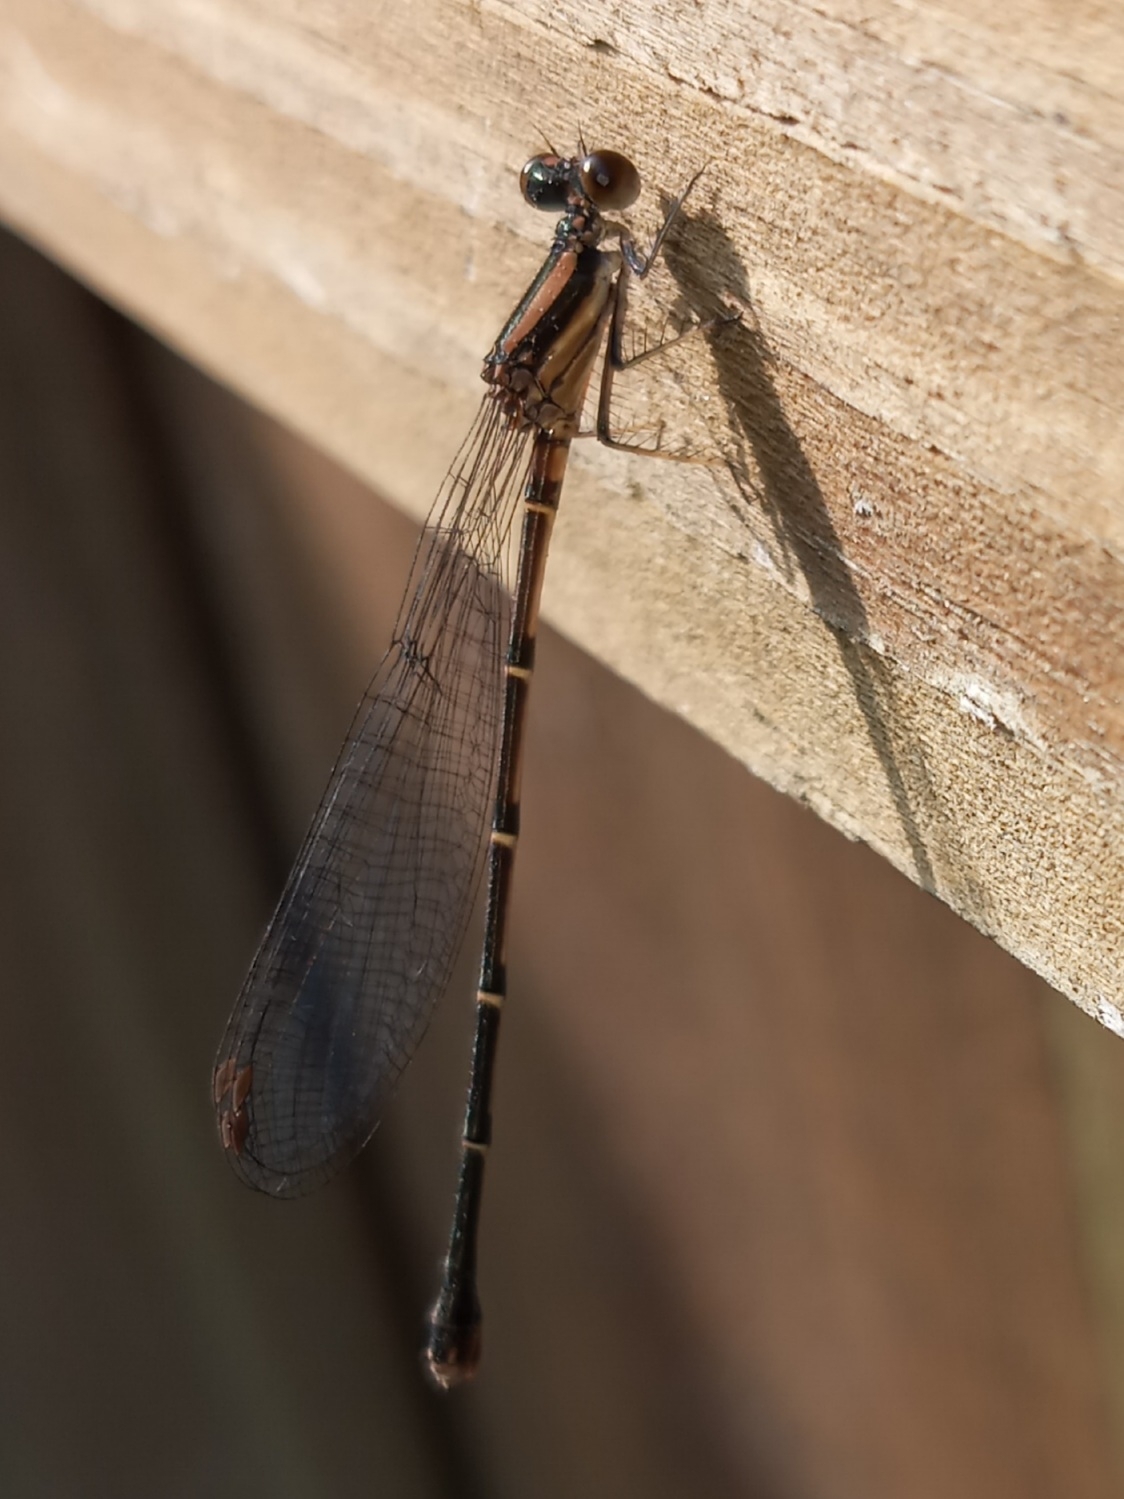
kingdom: Animalia
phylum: Arthropoda
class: Insecta
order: Odonata
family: Coenagrionidae
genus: Argia
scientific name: Argia tibialis
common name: Blue-tipped dancer
